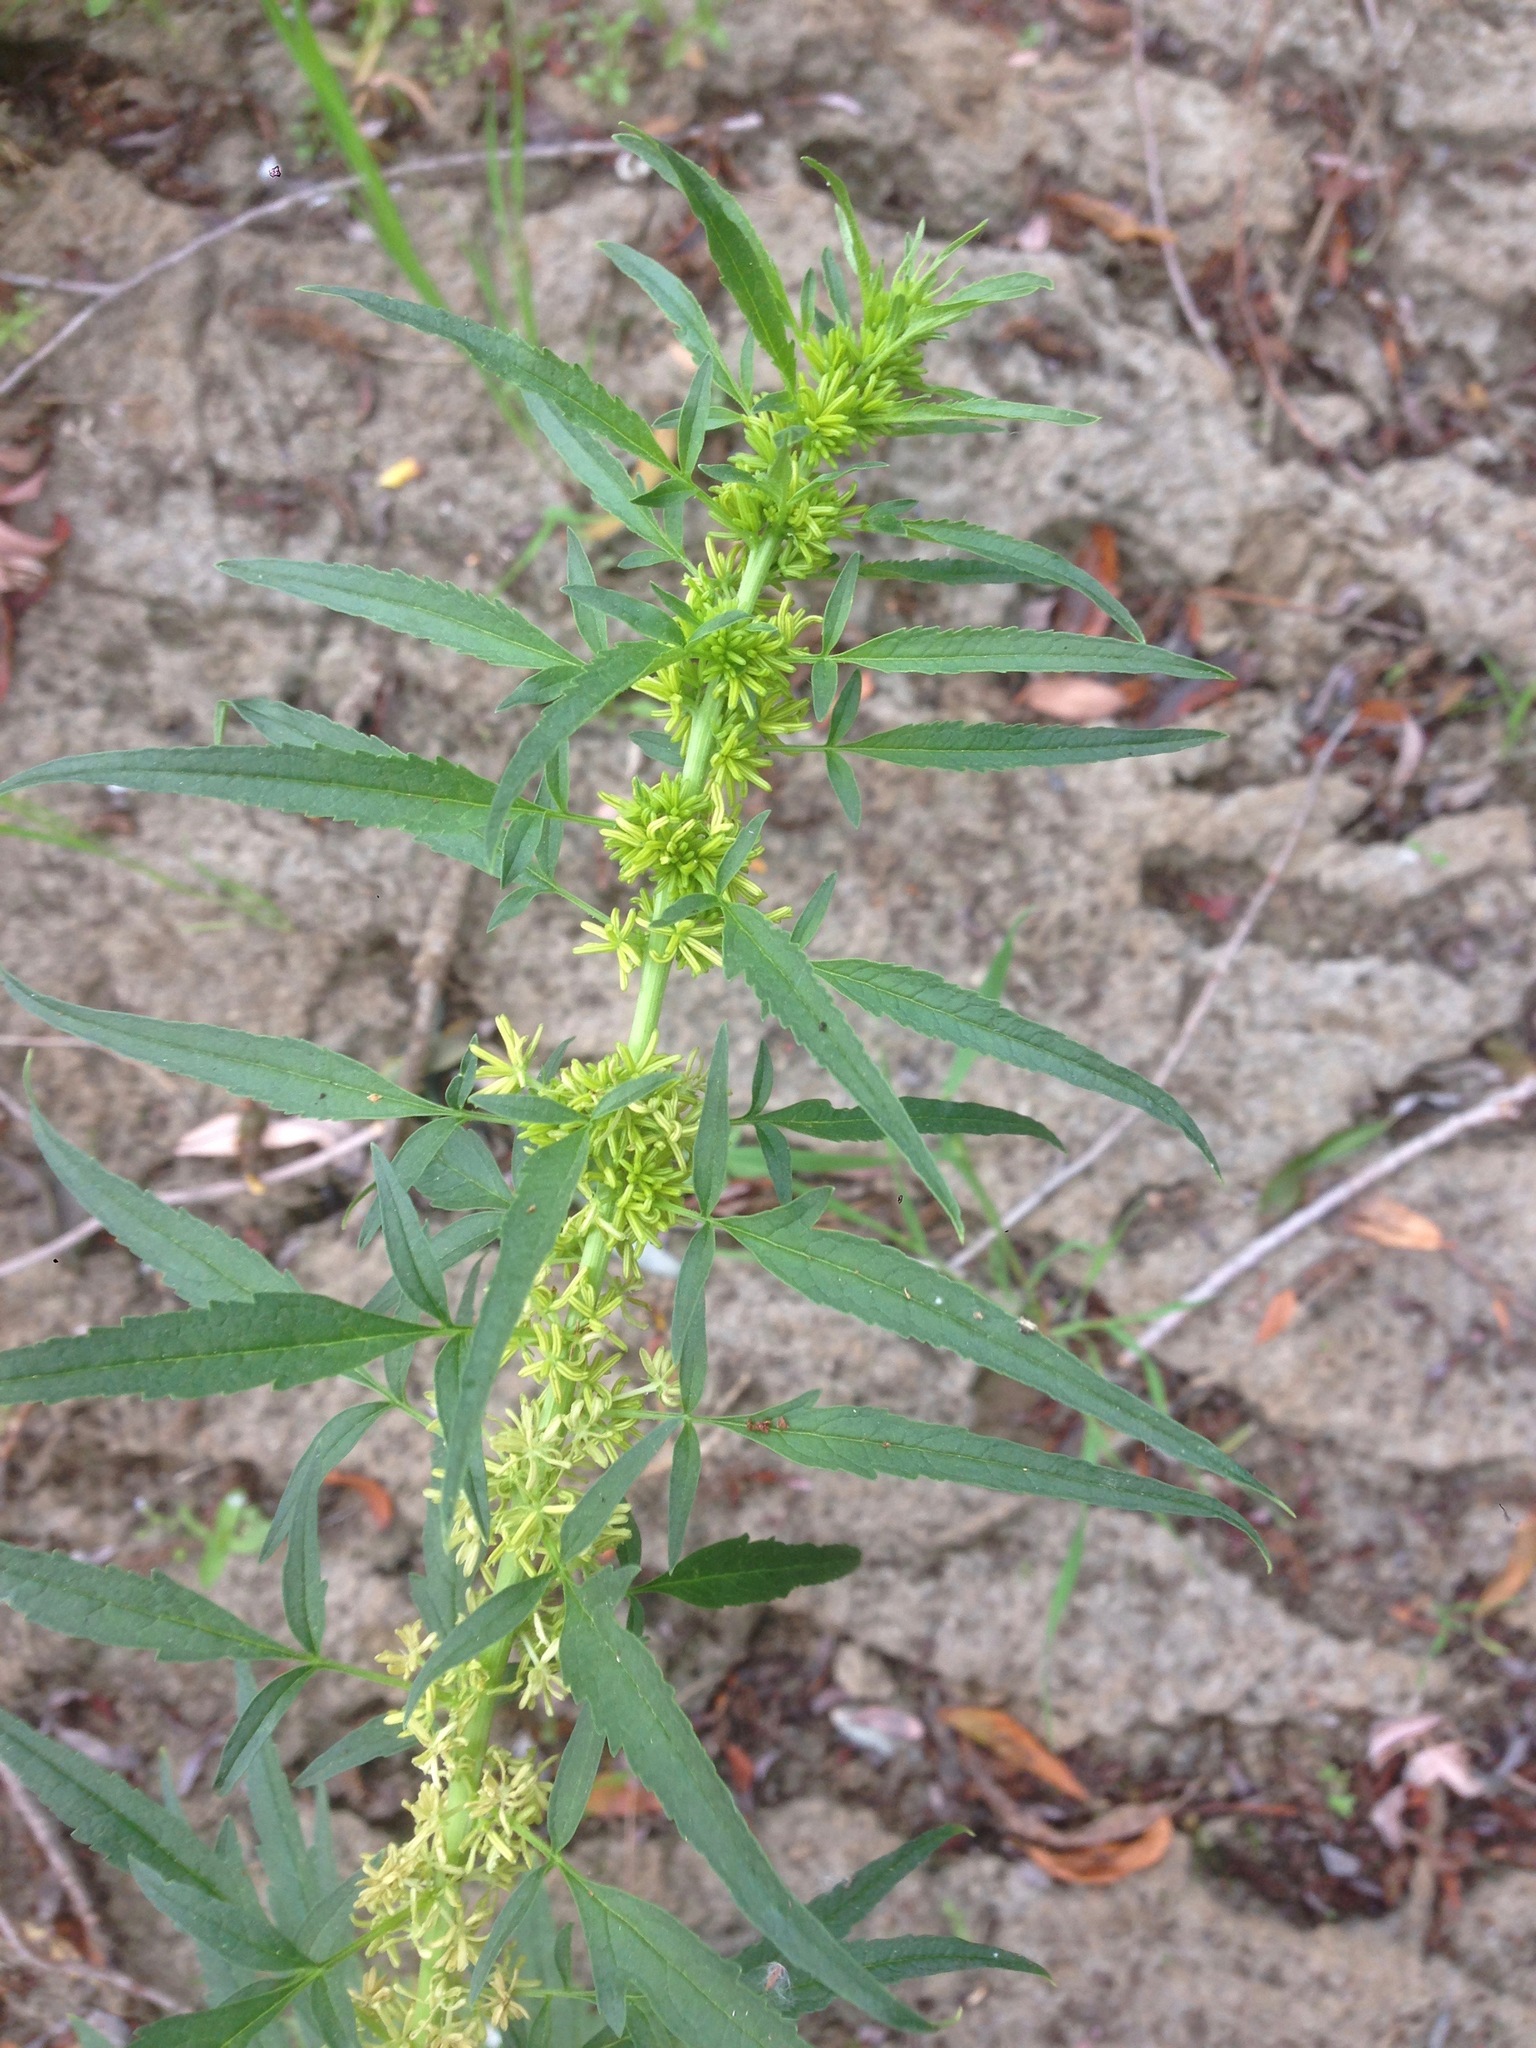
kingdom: Plantae
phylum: Tracheophyta
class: Magnoliopsida
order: Cucurbitales
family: Datiscaceae
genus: Datisca
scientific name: Datisca glomerata
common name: Durango-root
